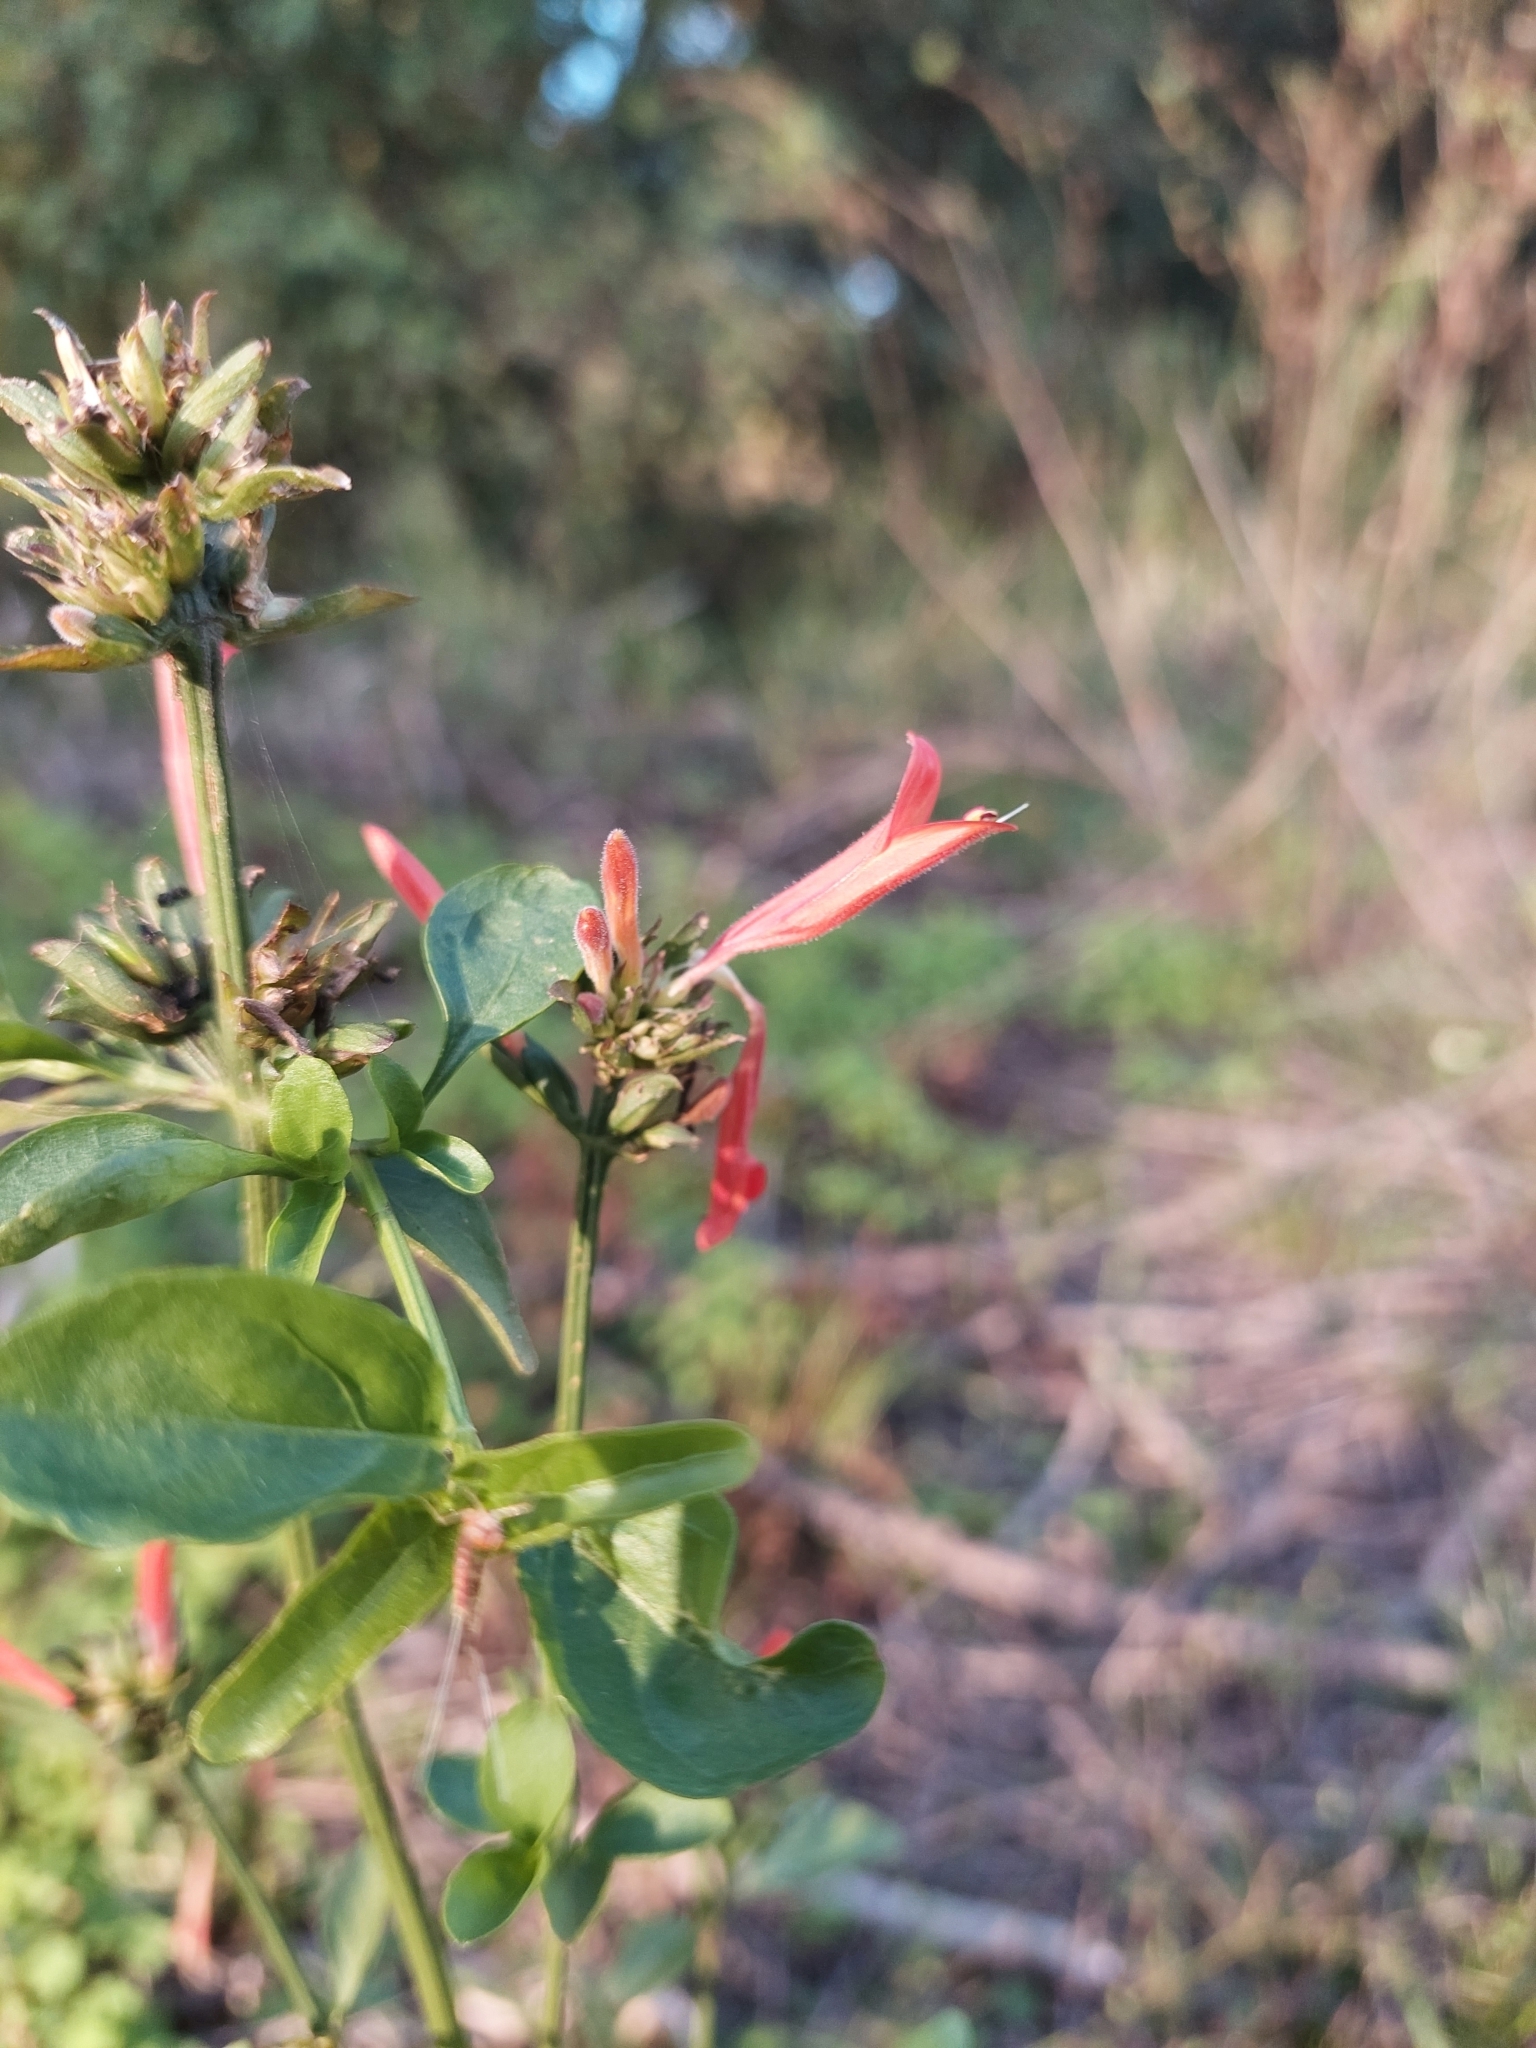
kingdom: Plantae
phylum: Tracheophyta
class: Magnoliopsida
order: Lamiales
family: Acanthaceae
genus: Dicliptera
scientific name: Dicliptera squarrosa
